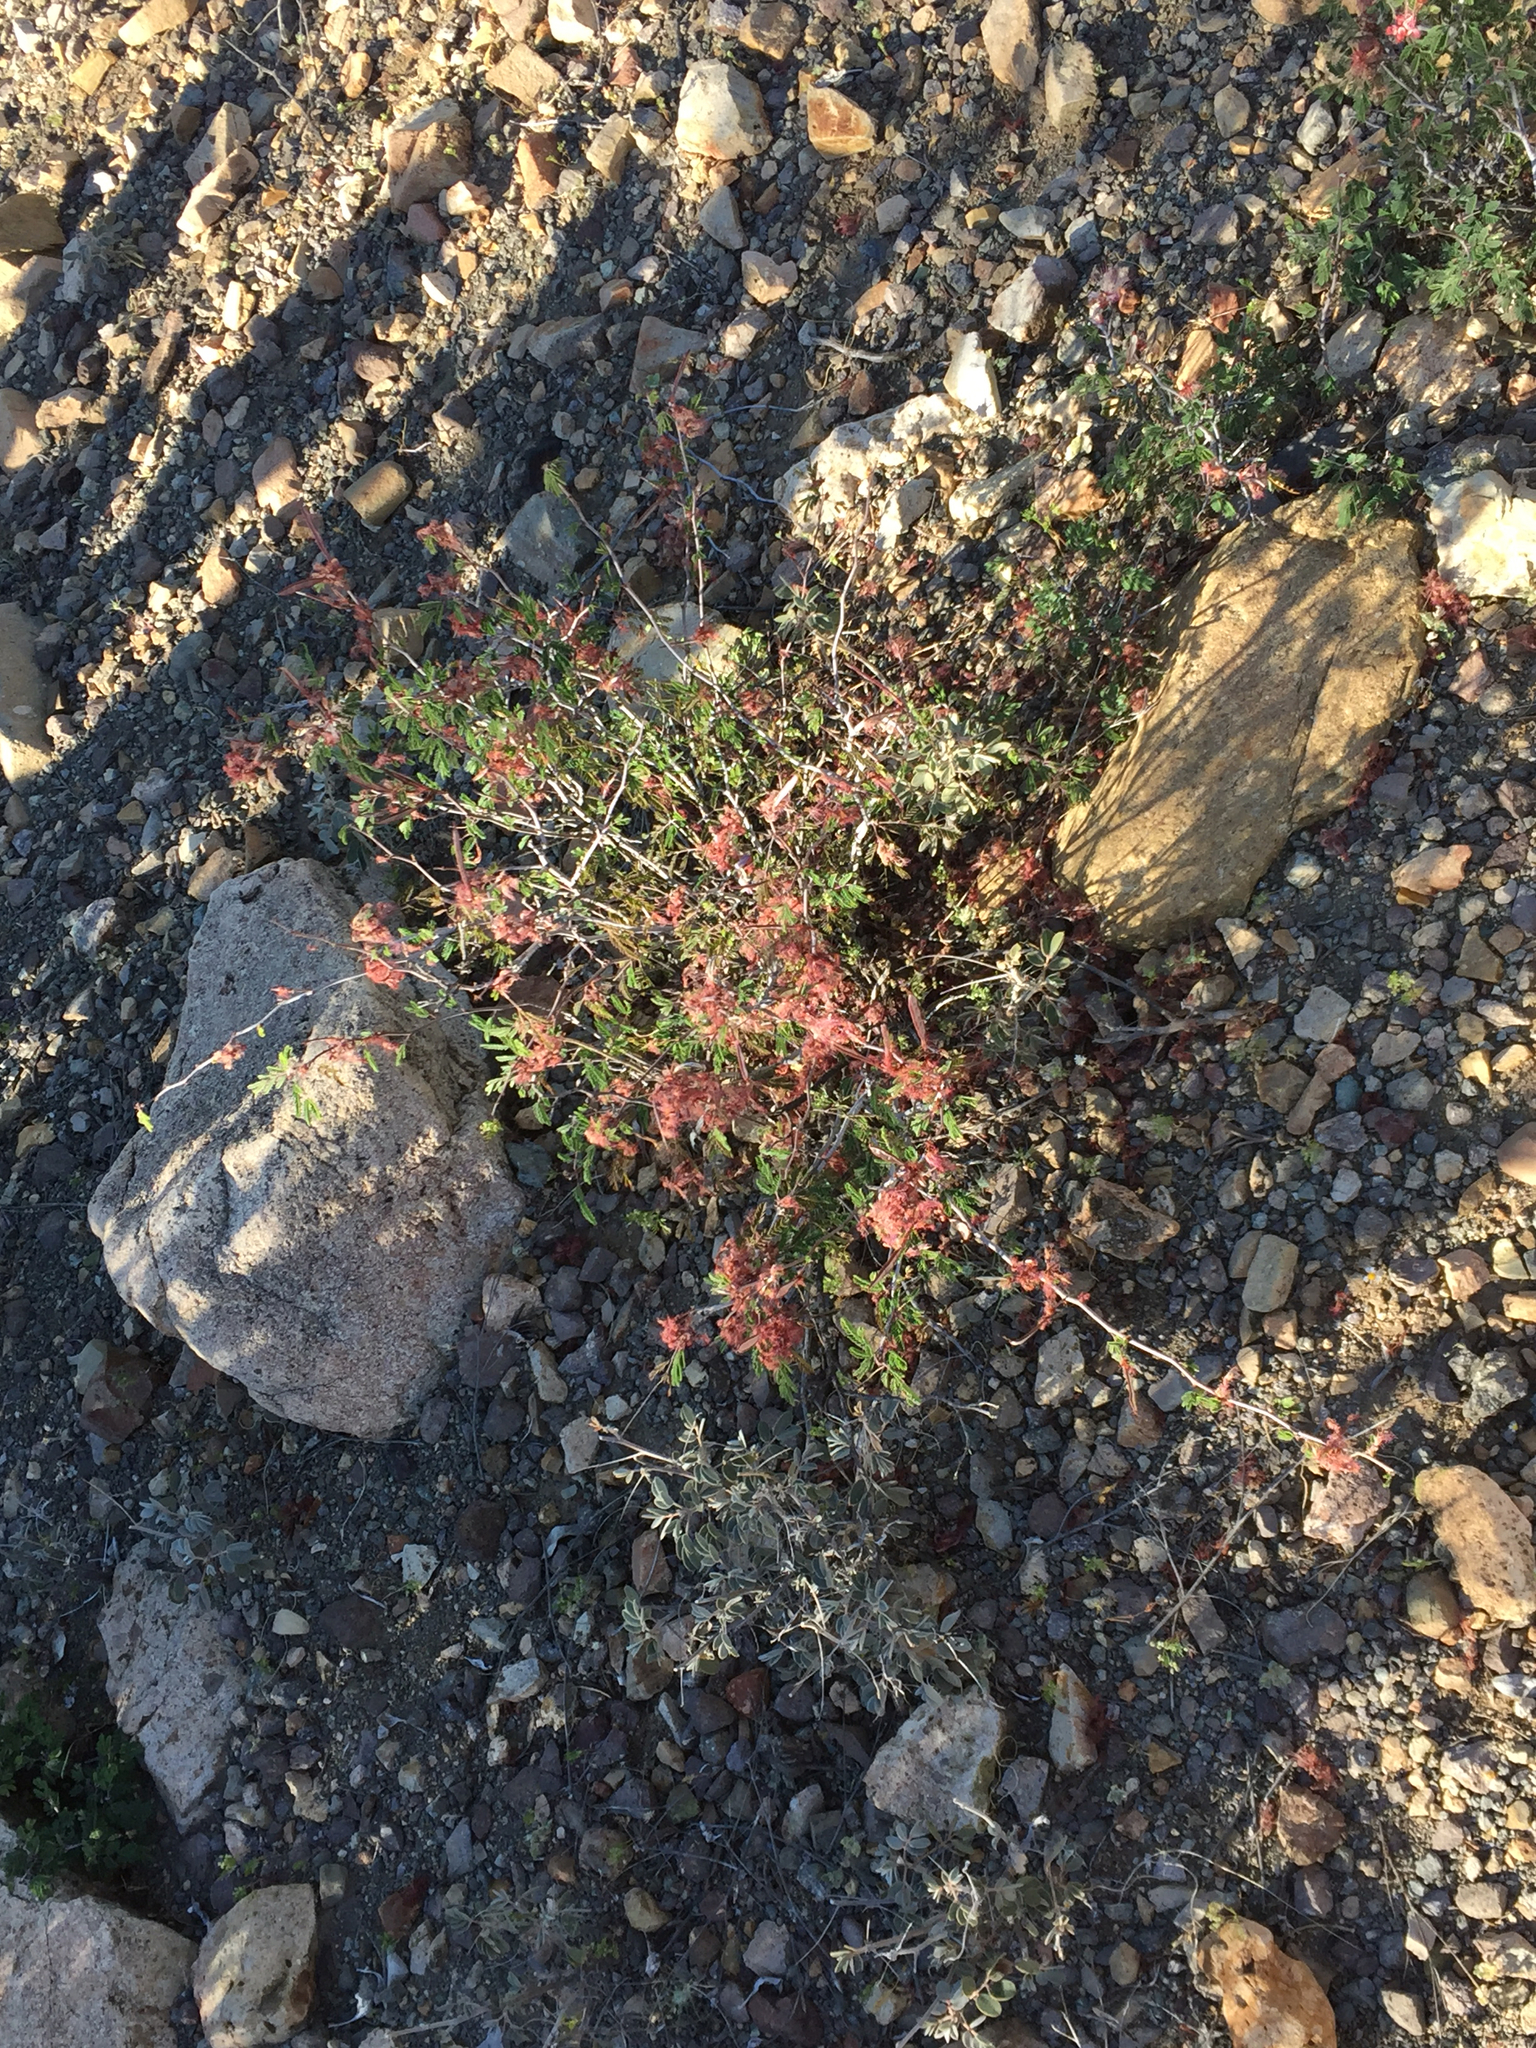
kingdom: Plantae
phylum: Tracheophyta
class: Magnoliopsida
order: Fabales
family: Fabaceae
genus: Calliandra
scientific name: Calliandra eriophylla
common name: Fairy-duster
